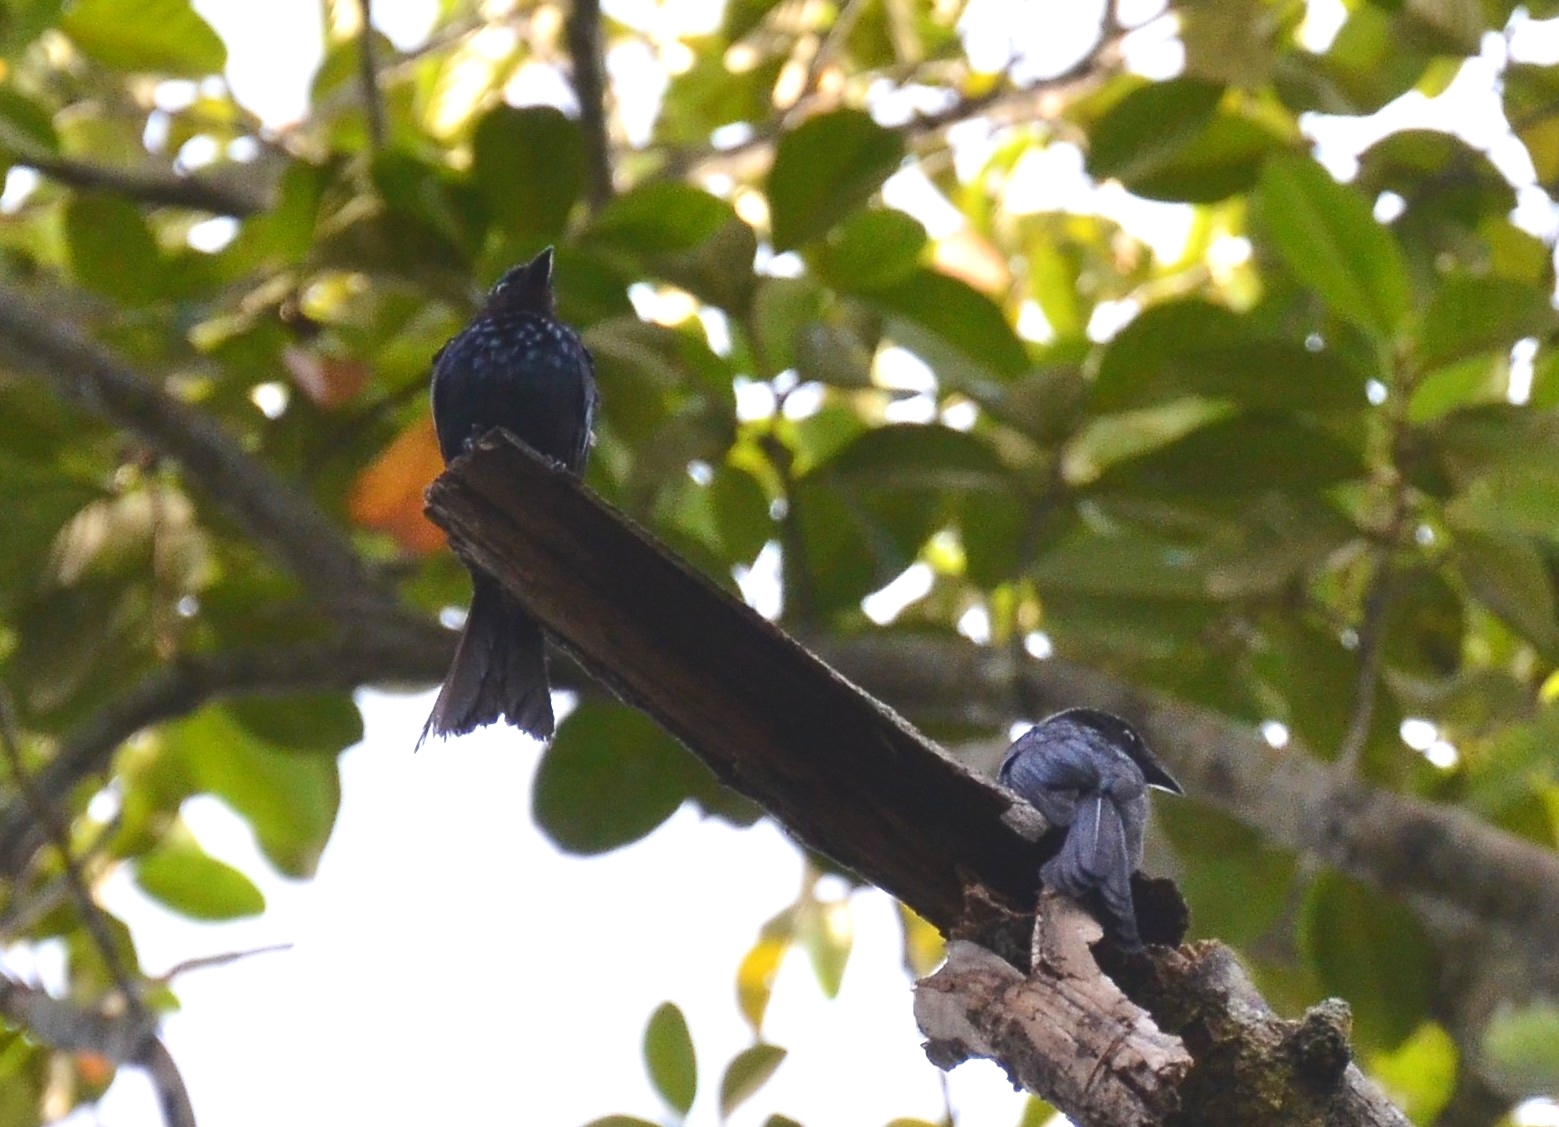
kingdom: Animalia
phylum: Chordata
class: Aves
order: Passeriformes
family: Dicruridae
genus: Dicrurus
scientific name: Dicrurus aeneus
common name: Bronzed drongo
